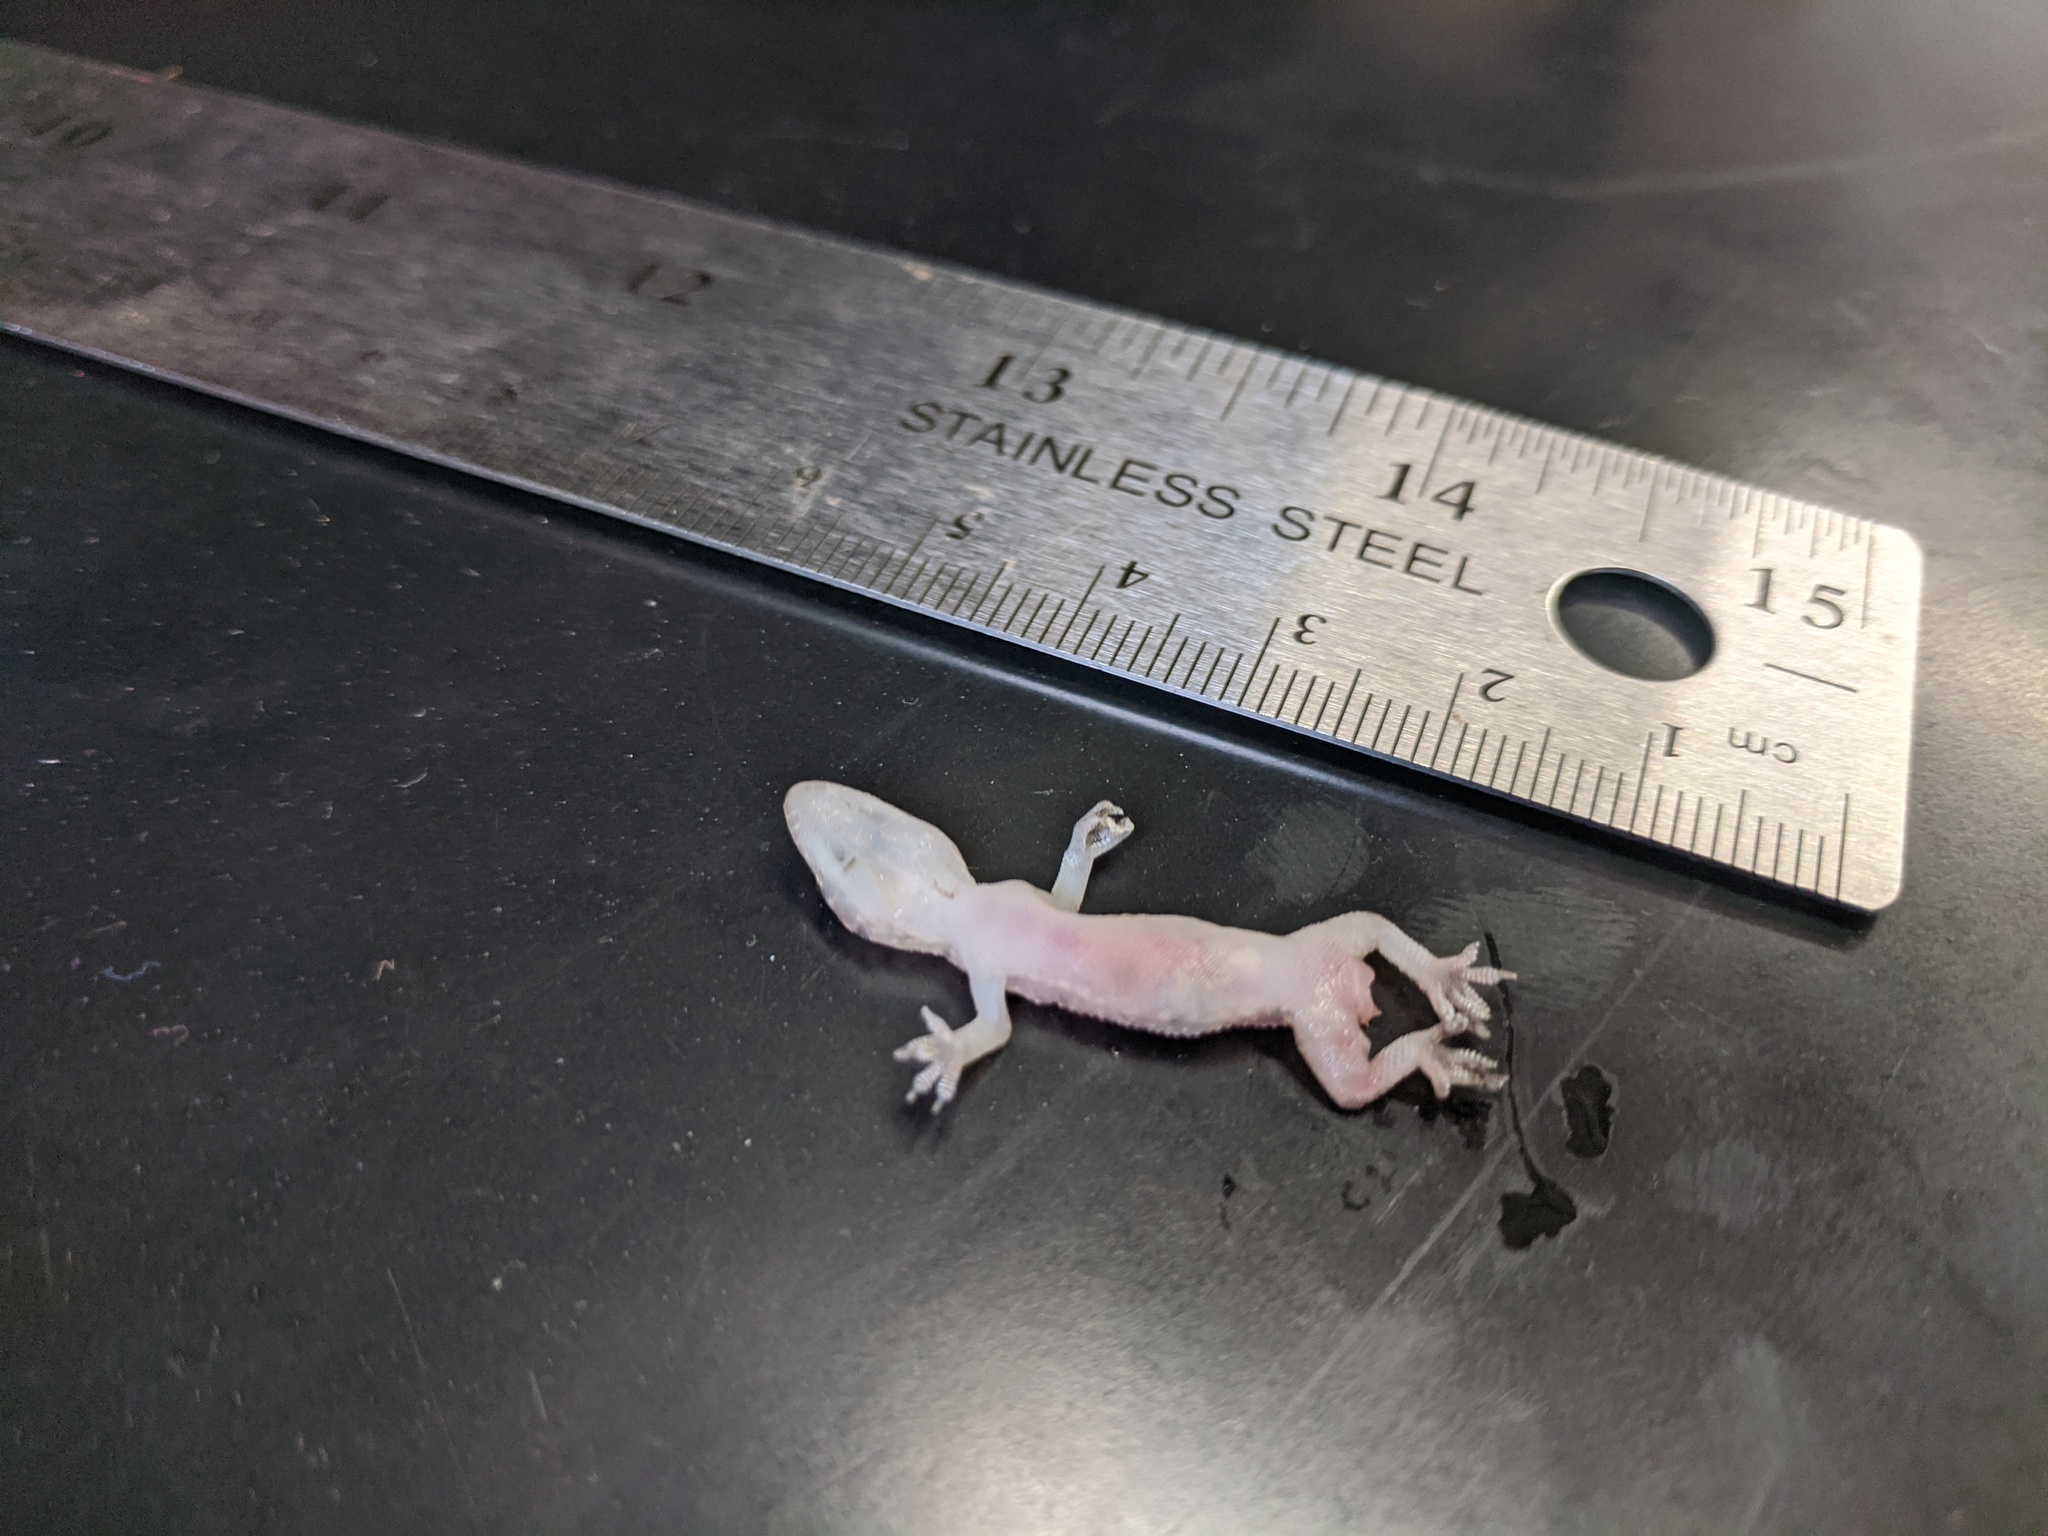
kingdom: Animalia
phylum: Chordata
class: Squamata
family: Gekkonidae
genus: Hemidactylus
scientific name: Hemidactylus turcicus
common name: Turkish gecko
